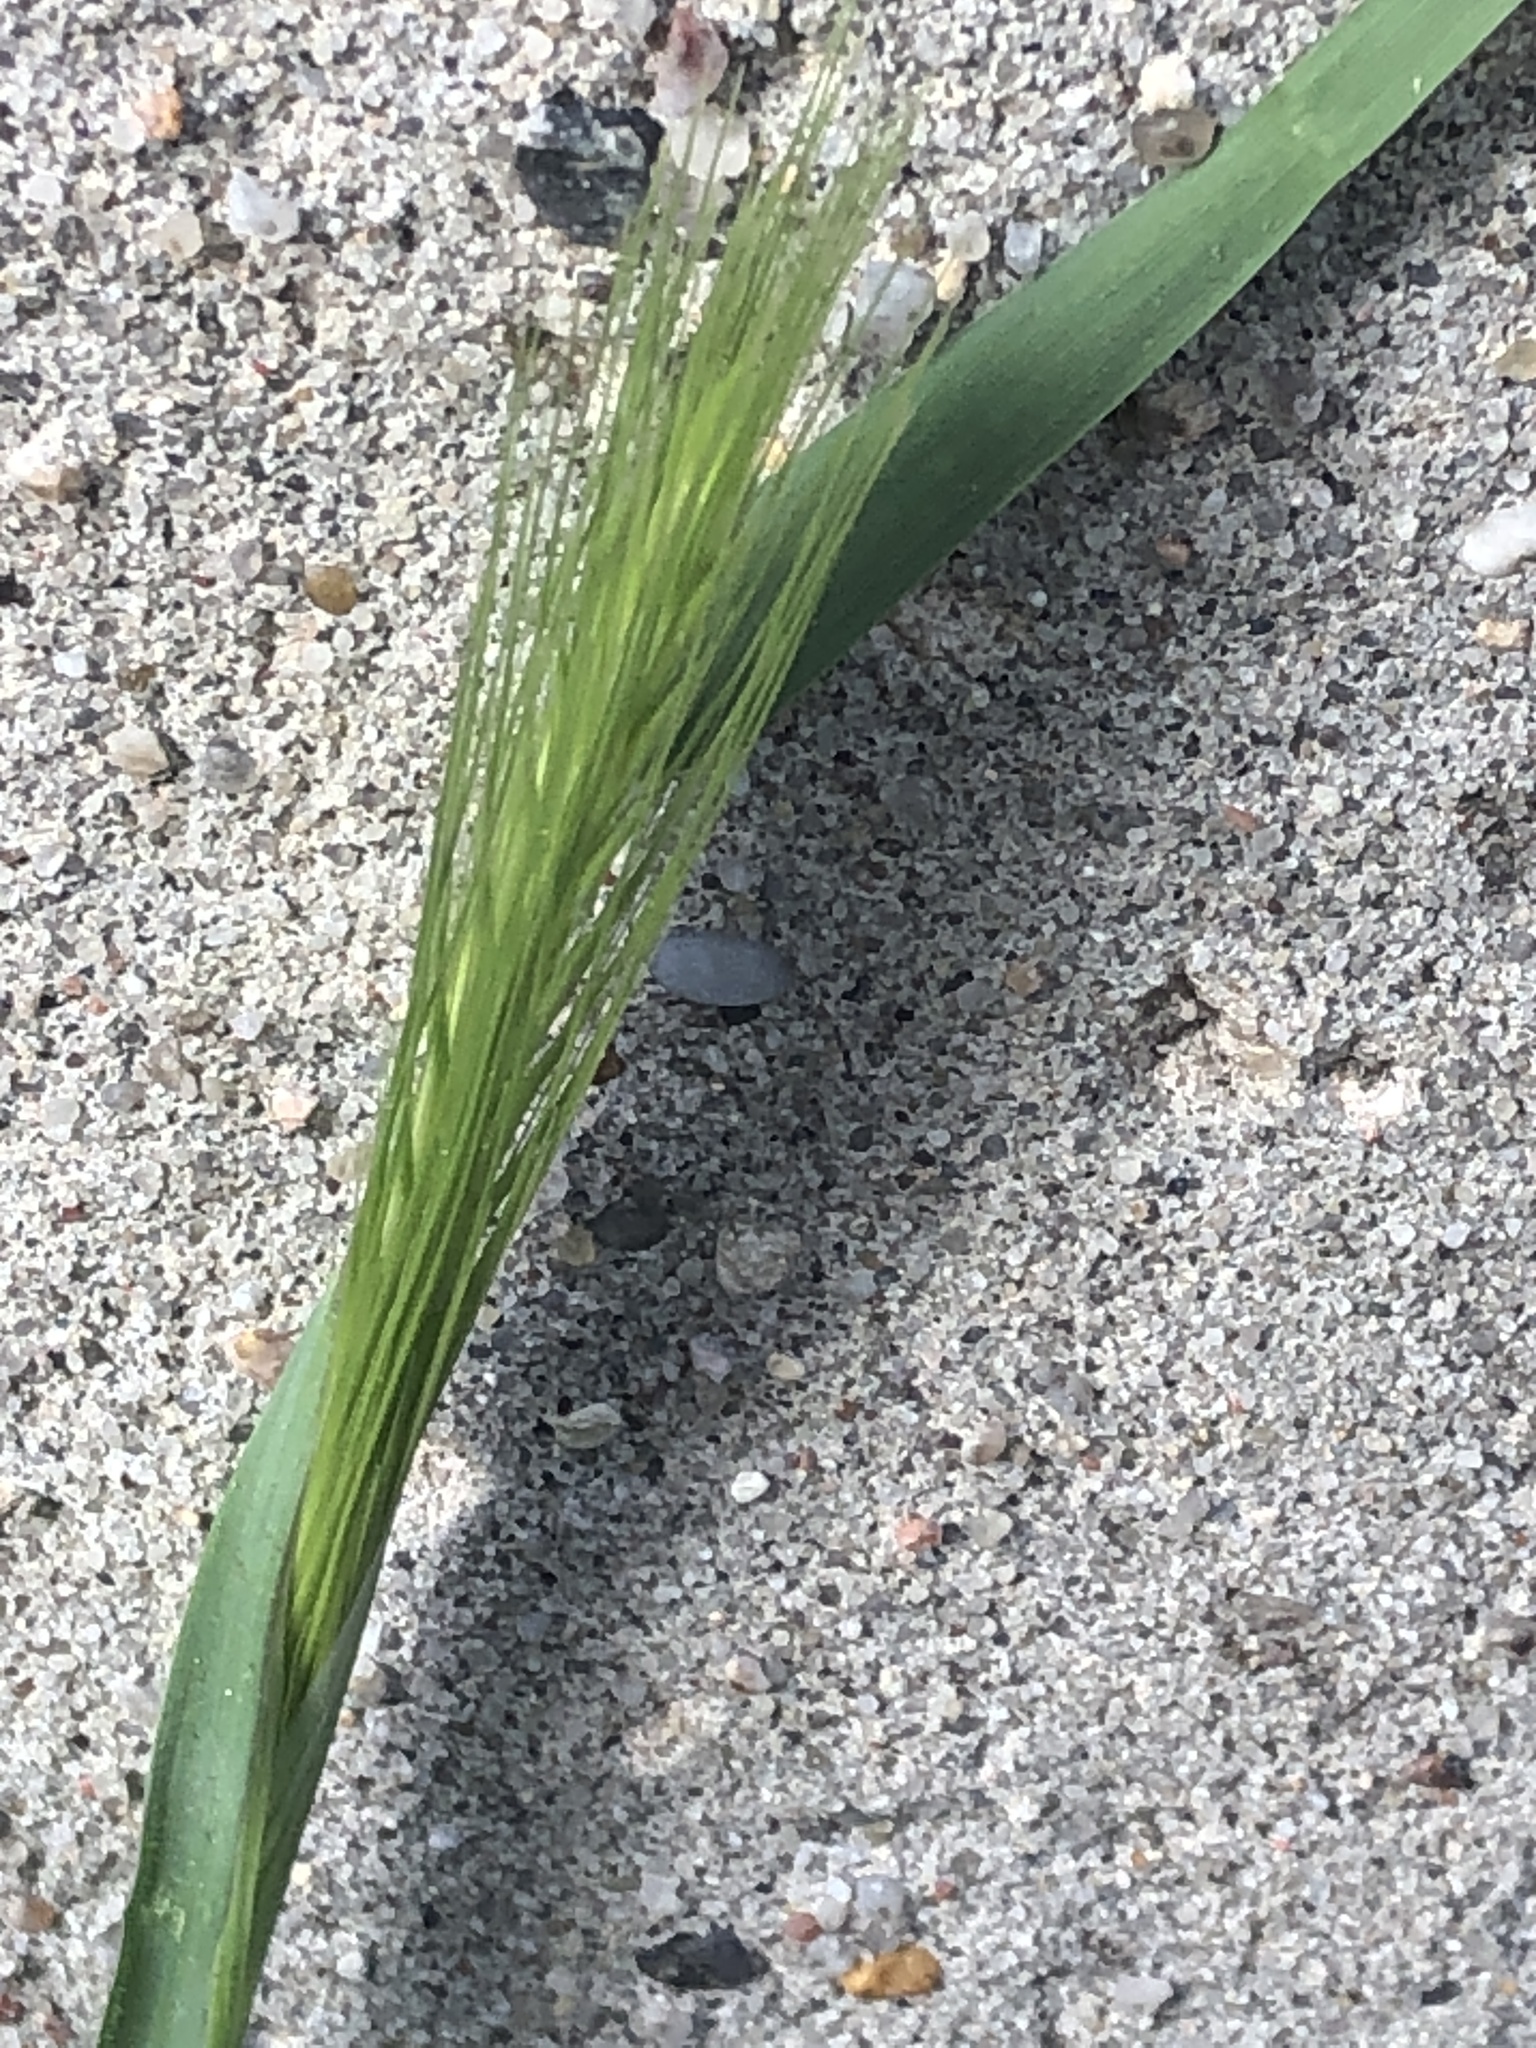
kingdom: Plantae
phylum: Tracheophyta
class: Liliopsida
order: Poales
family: Poaceae
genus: Hordeum
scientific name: Hordeum murinum
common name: Wall barley
